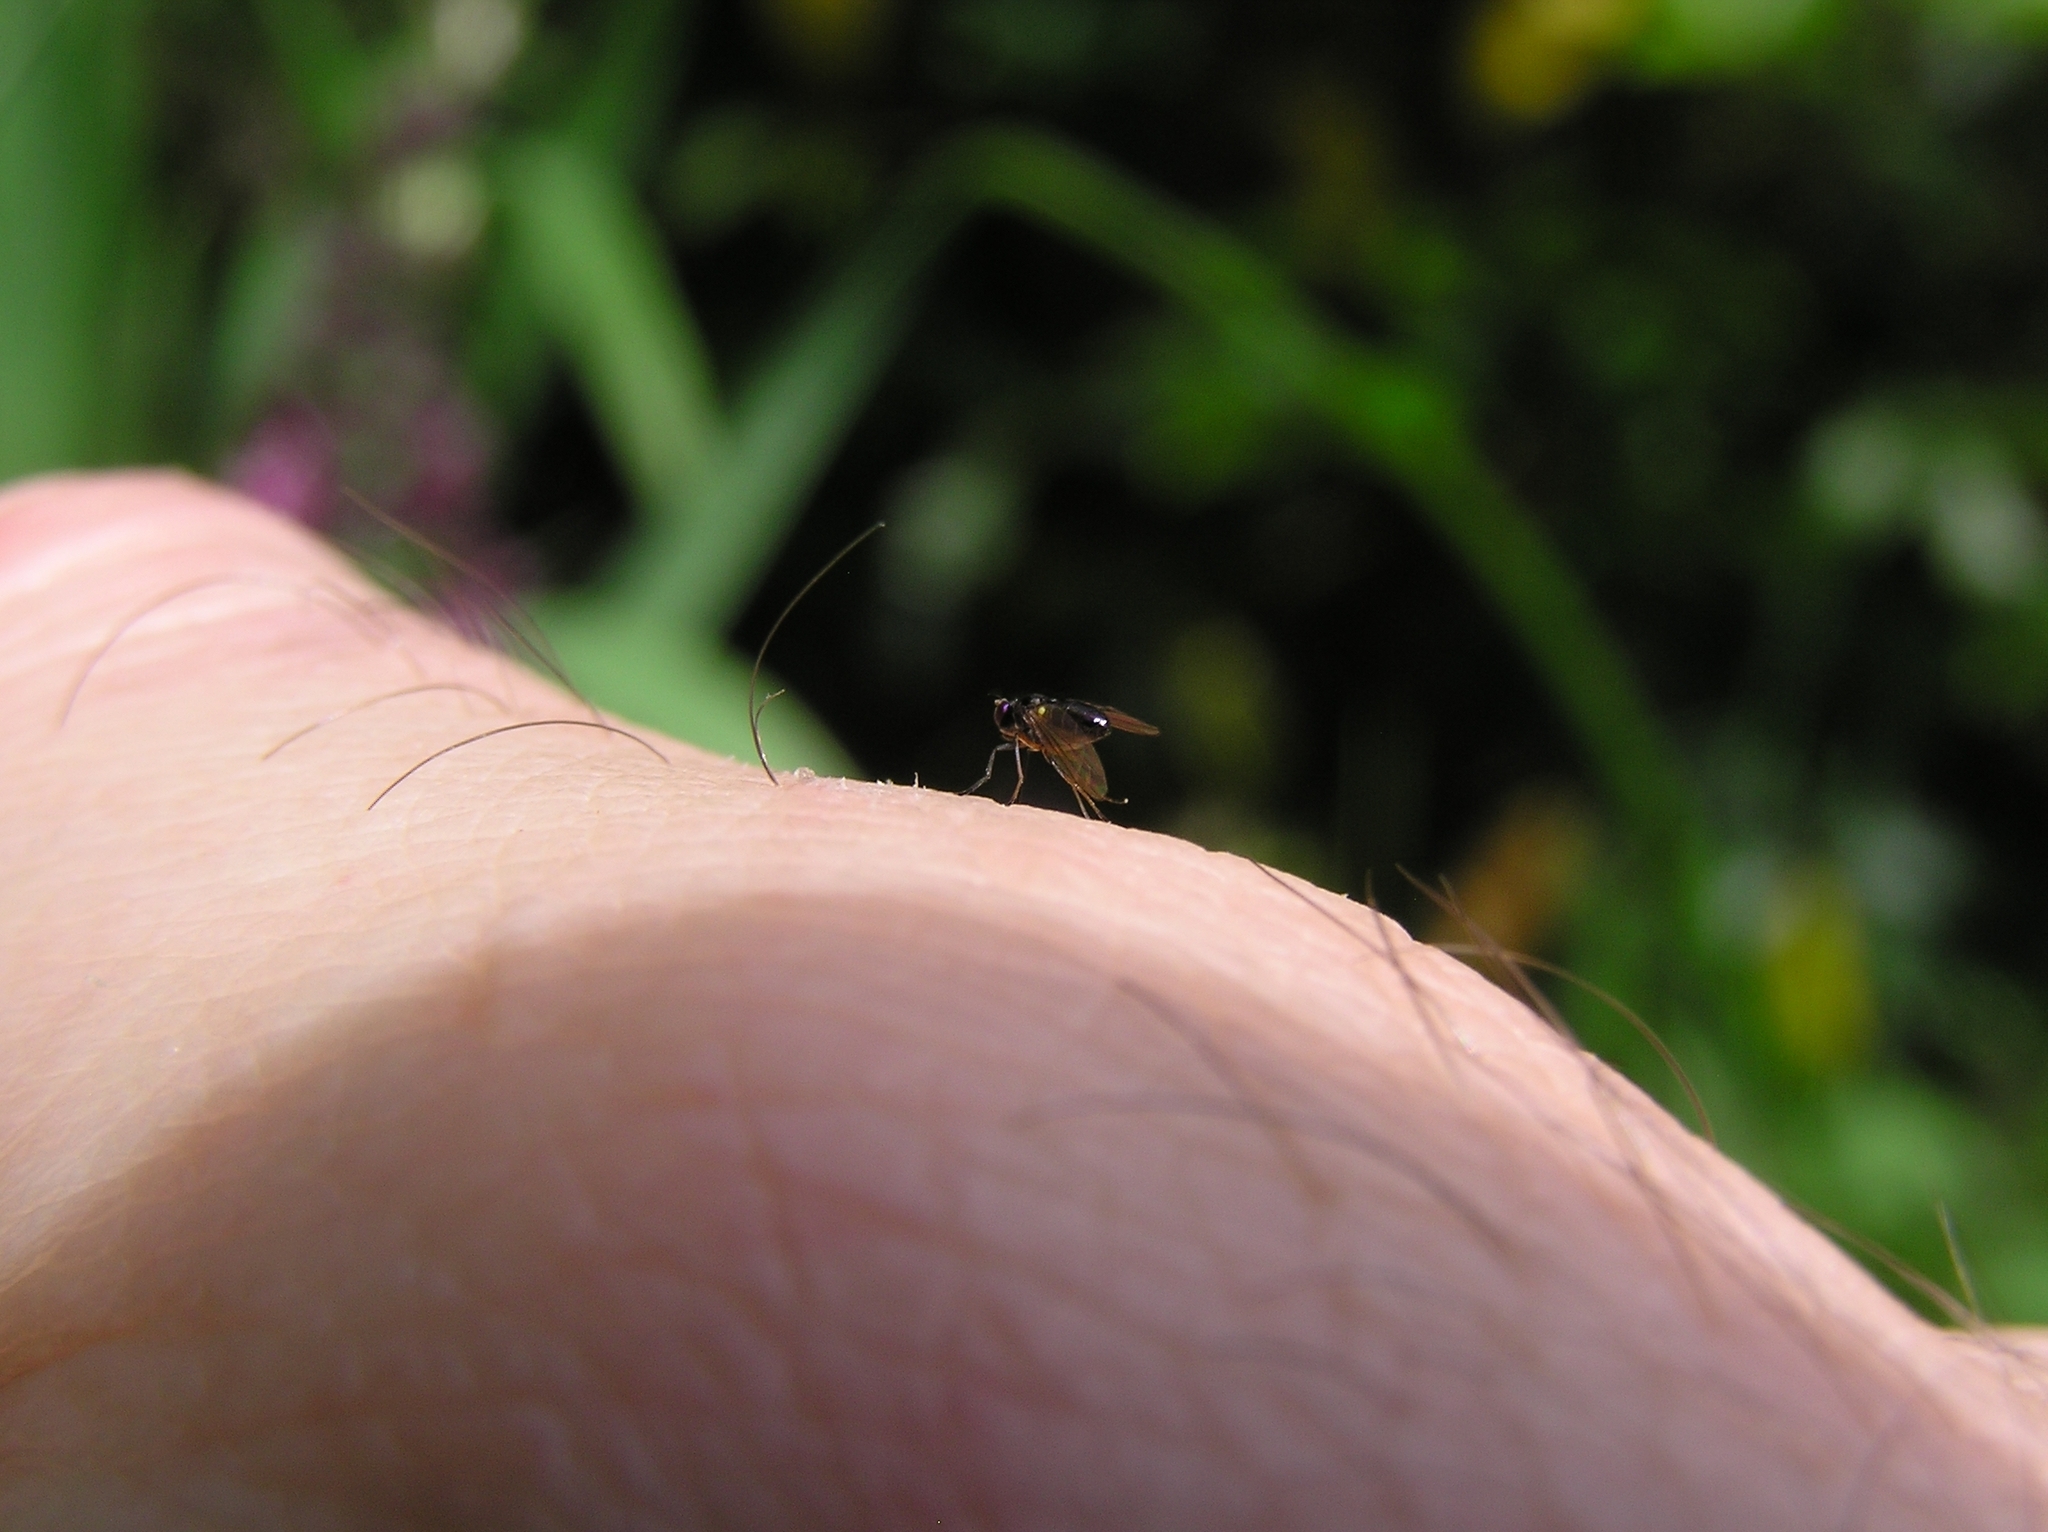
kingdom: Animalia
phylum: Arthropoda
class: Insecta
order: Diptera
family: Ephydridae
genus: Hydrellia
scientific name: Hydrellia tritici
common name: Shore fly
